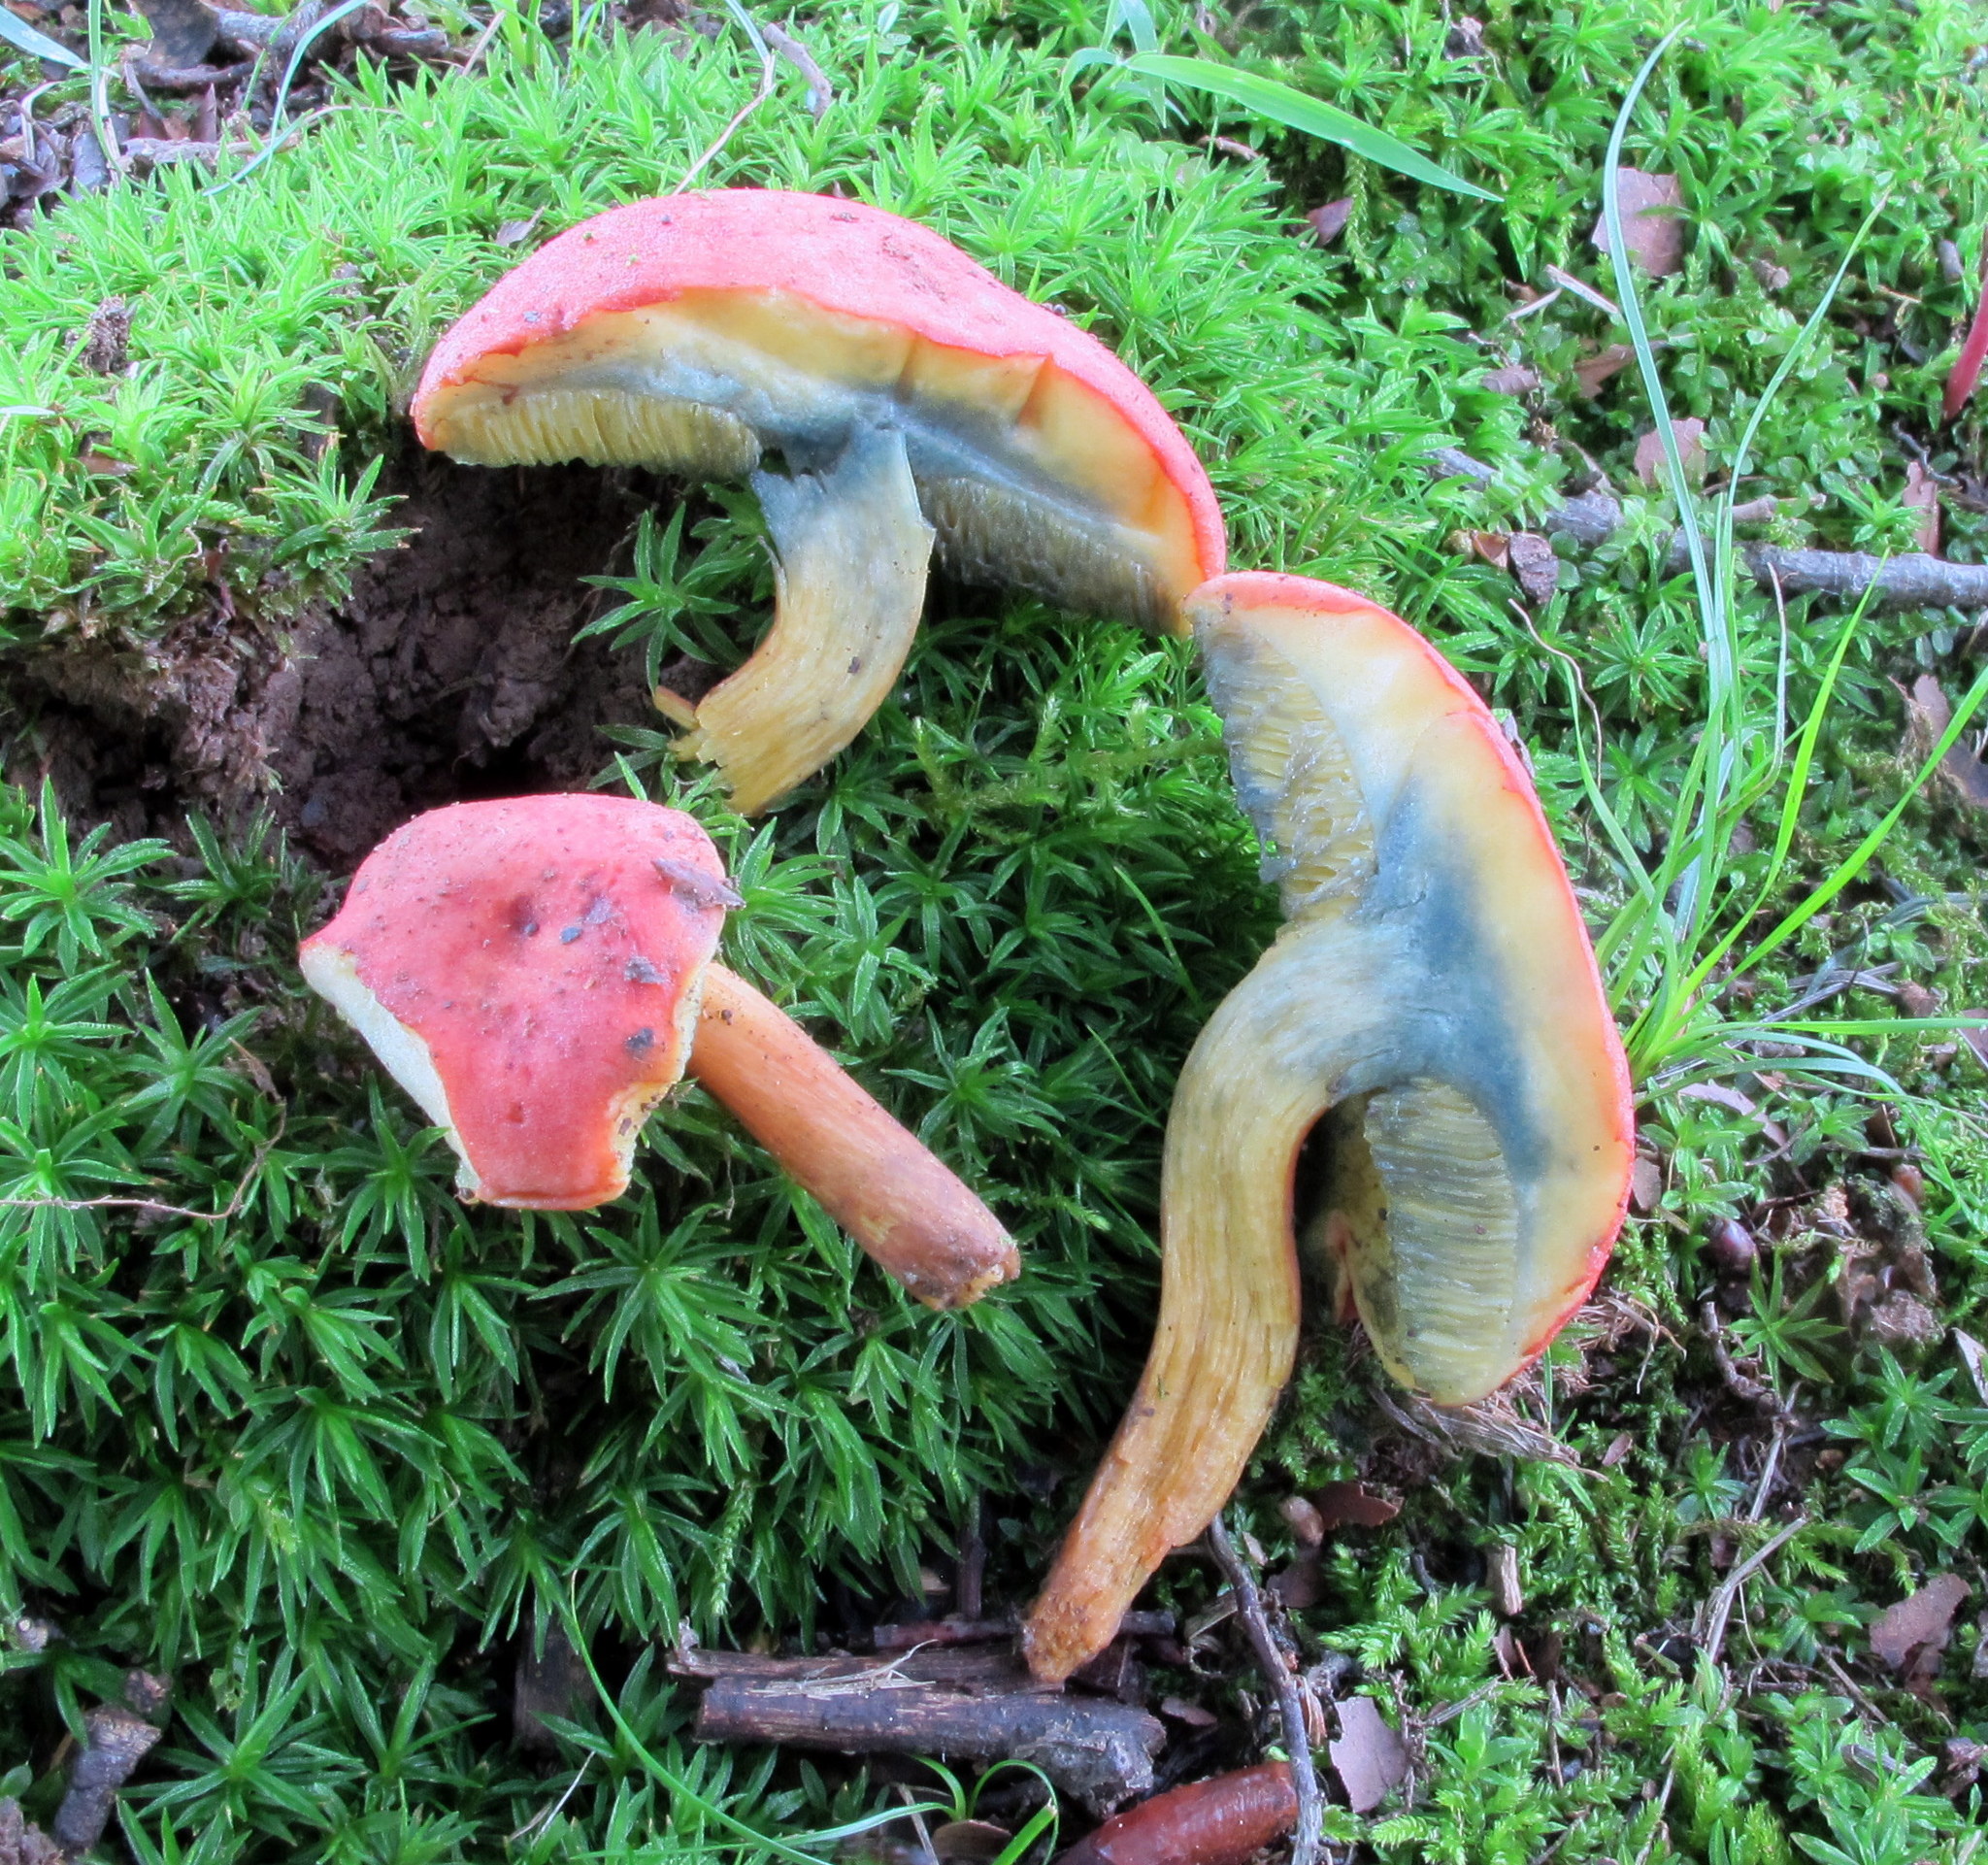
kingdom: Fungi
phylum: Basidiomycota
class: Agaricomycetes
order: Boletales
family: Boletaceae
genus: Boletus
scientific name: Boletus subfraternus
